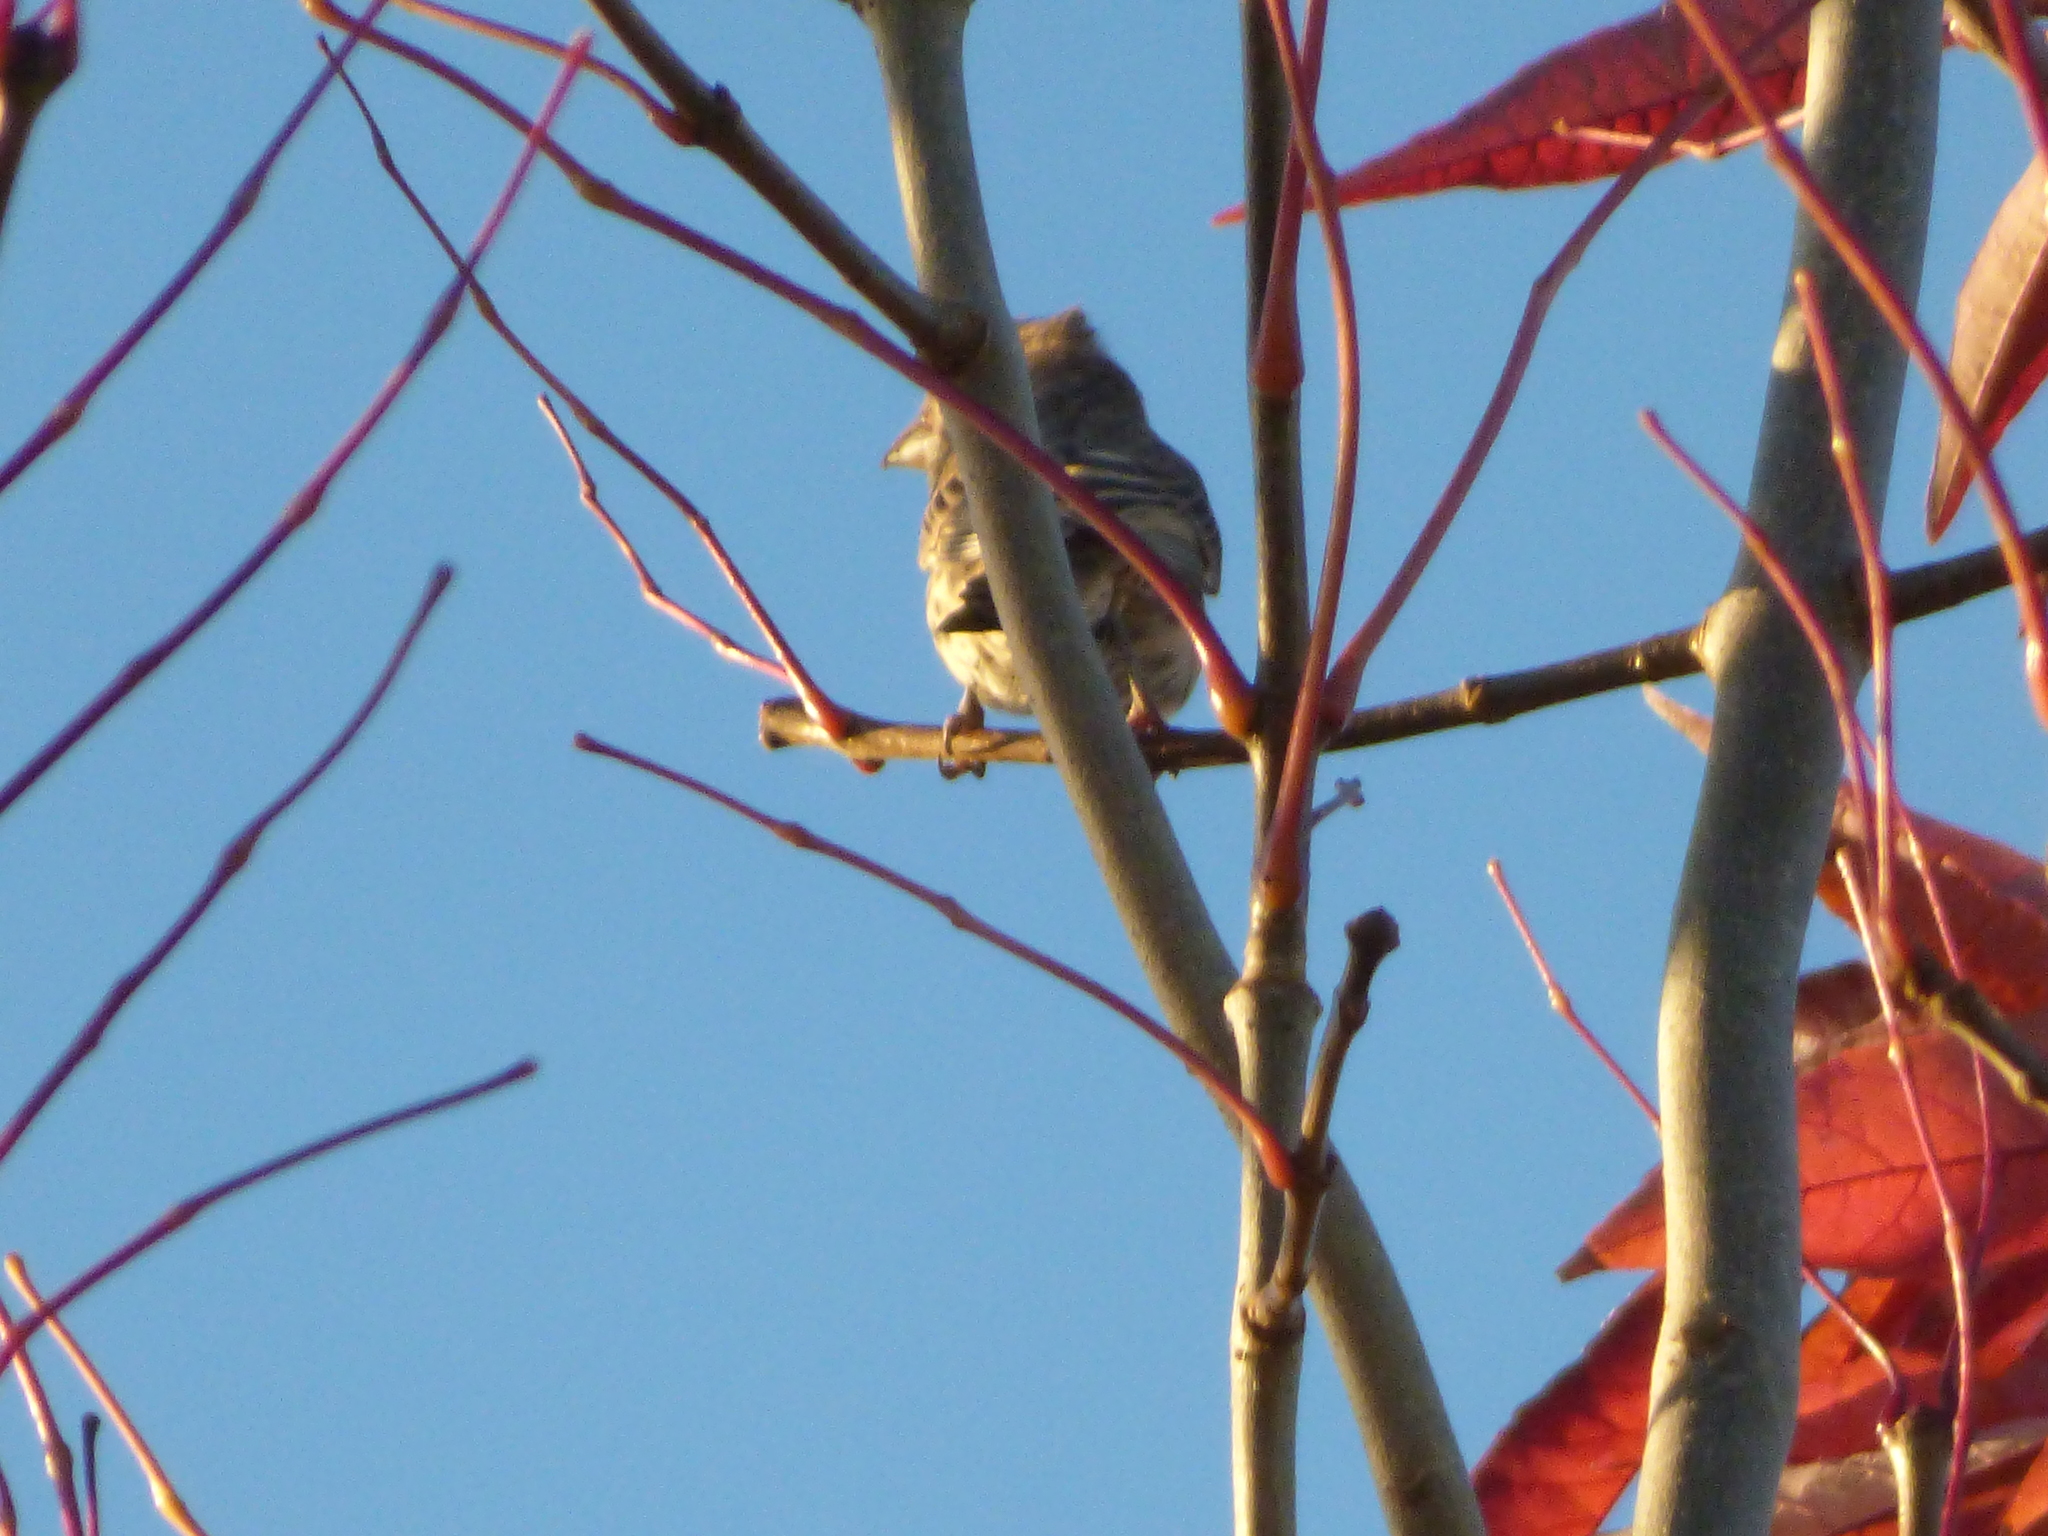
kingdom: Animalia
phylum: Chordata
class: Aves
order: Passeriformes
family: Fringillidae
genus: Haemorhous
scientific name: Haemorhous mexicanus
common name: House finch
